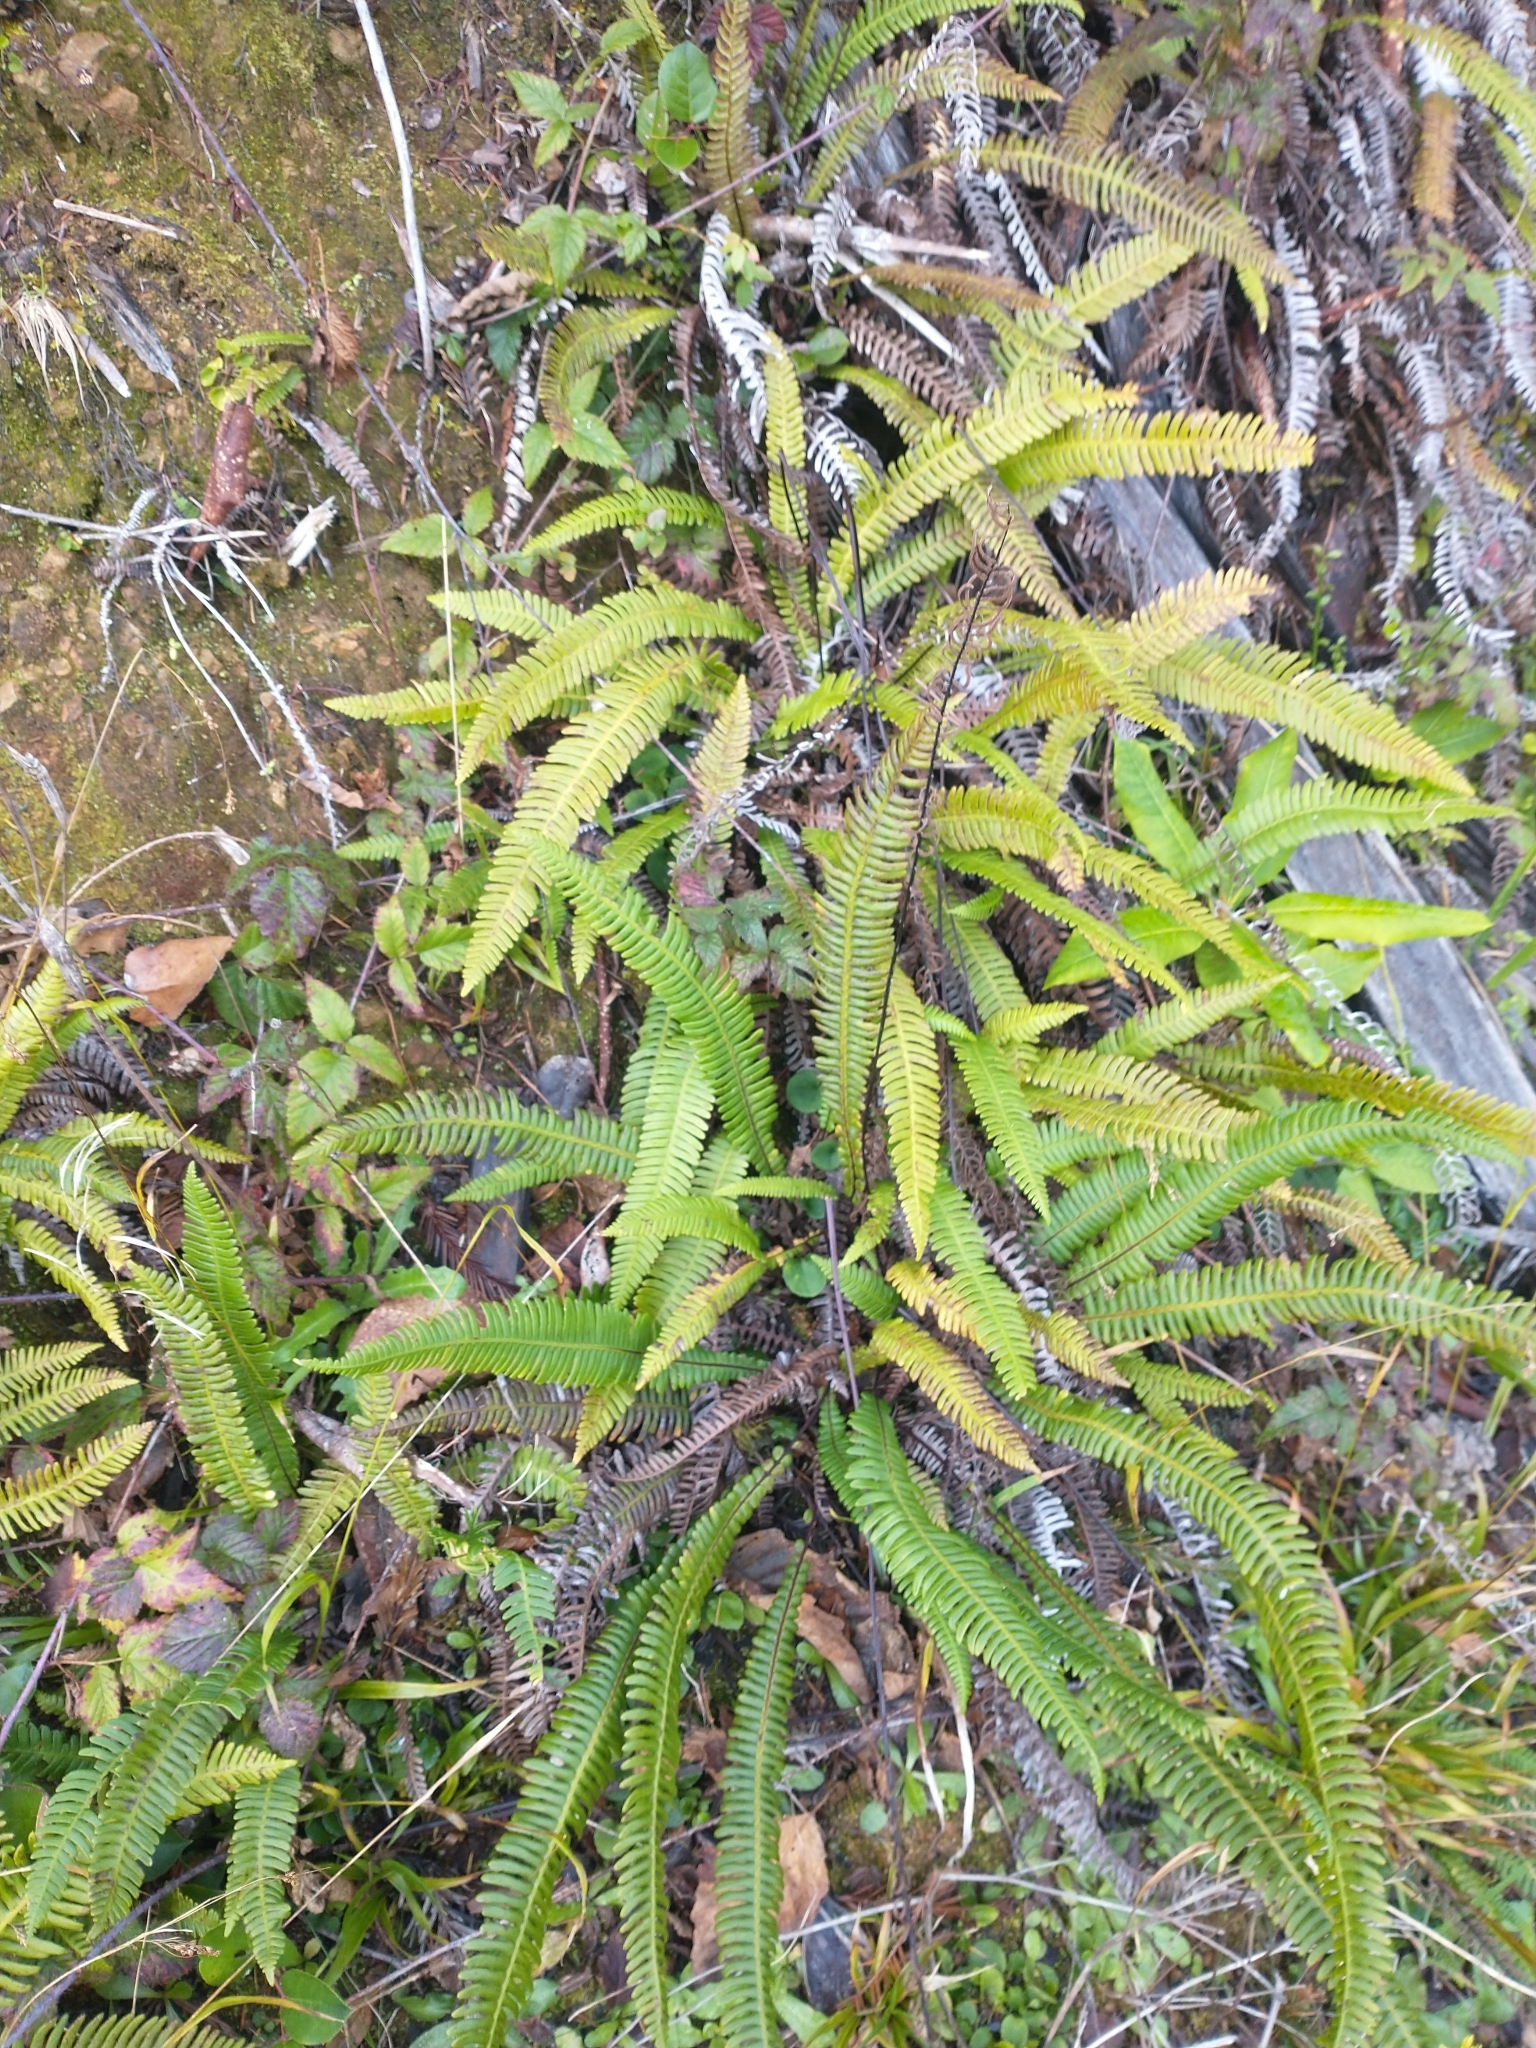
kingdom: Plantae
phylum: Tracheophyta
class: Polypodiopsida
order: Polypodiales
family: Blechnaceae
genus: Struthiopteris
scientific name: Struthiopteris spicant
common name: Deer fern
